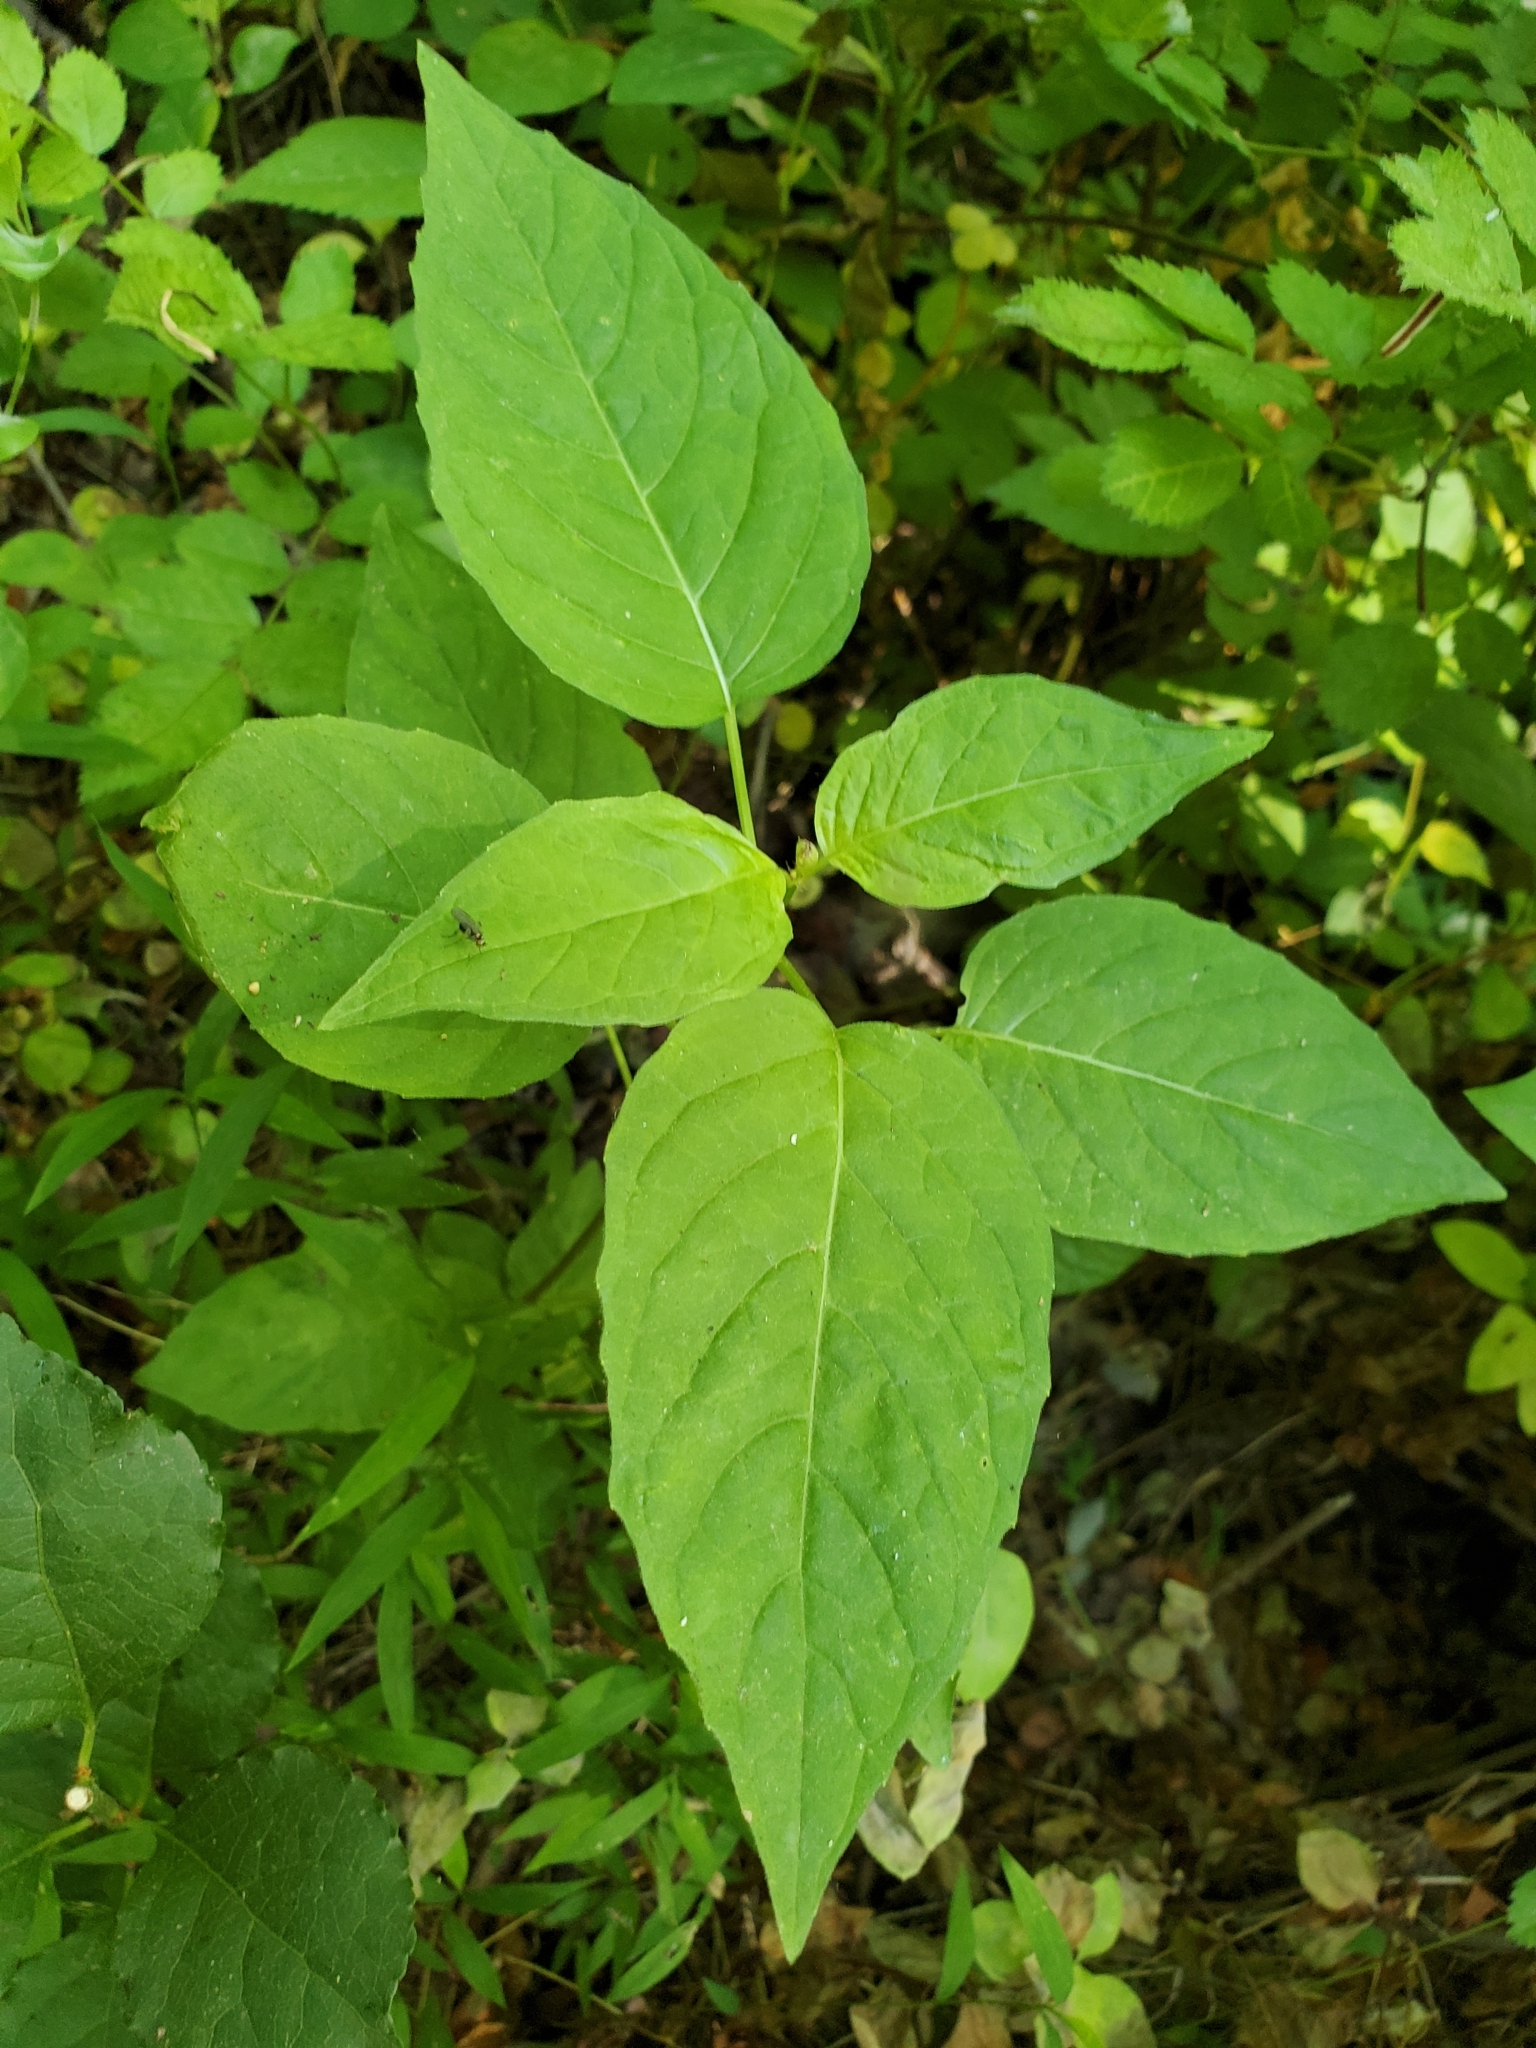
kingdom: Plantae
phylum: Tracheophyta
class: Magnoliopsida
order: Myrtales
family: Onagraceae
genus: Circaea
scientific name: Circaea canadensis
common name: Broad-leaved enchanter's nightshade
